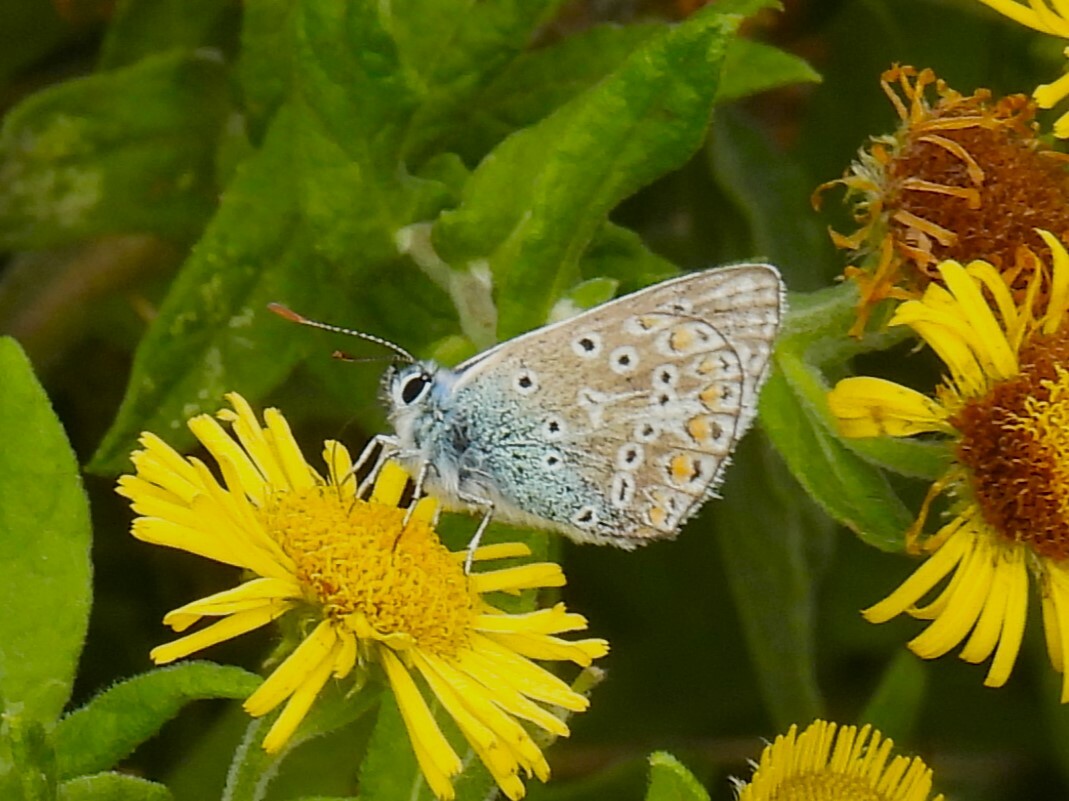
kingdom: Animalia
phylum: Arthropoda
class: Insecta
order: Lepidoptera
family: Lycaenidae
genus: Polyommatus
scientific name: Polyommatus icarus
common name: Common blue
